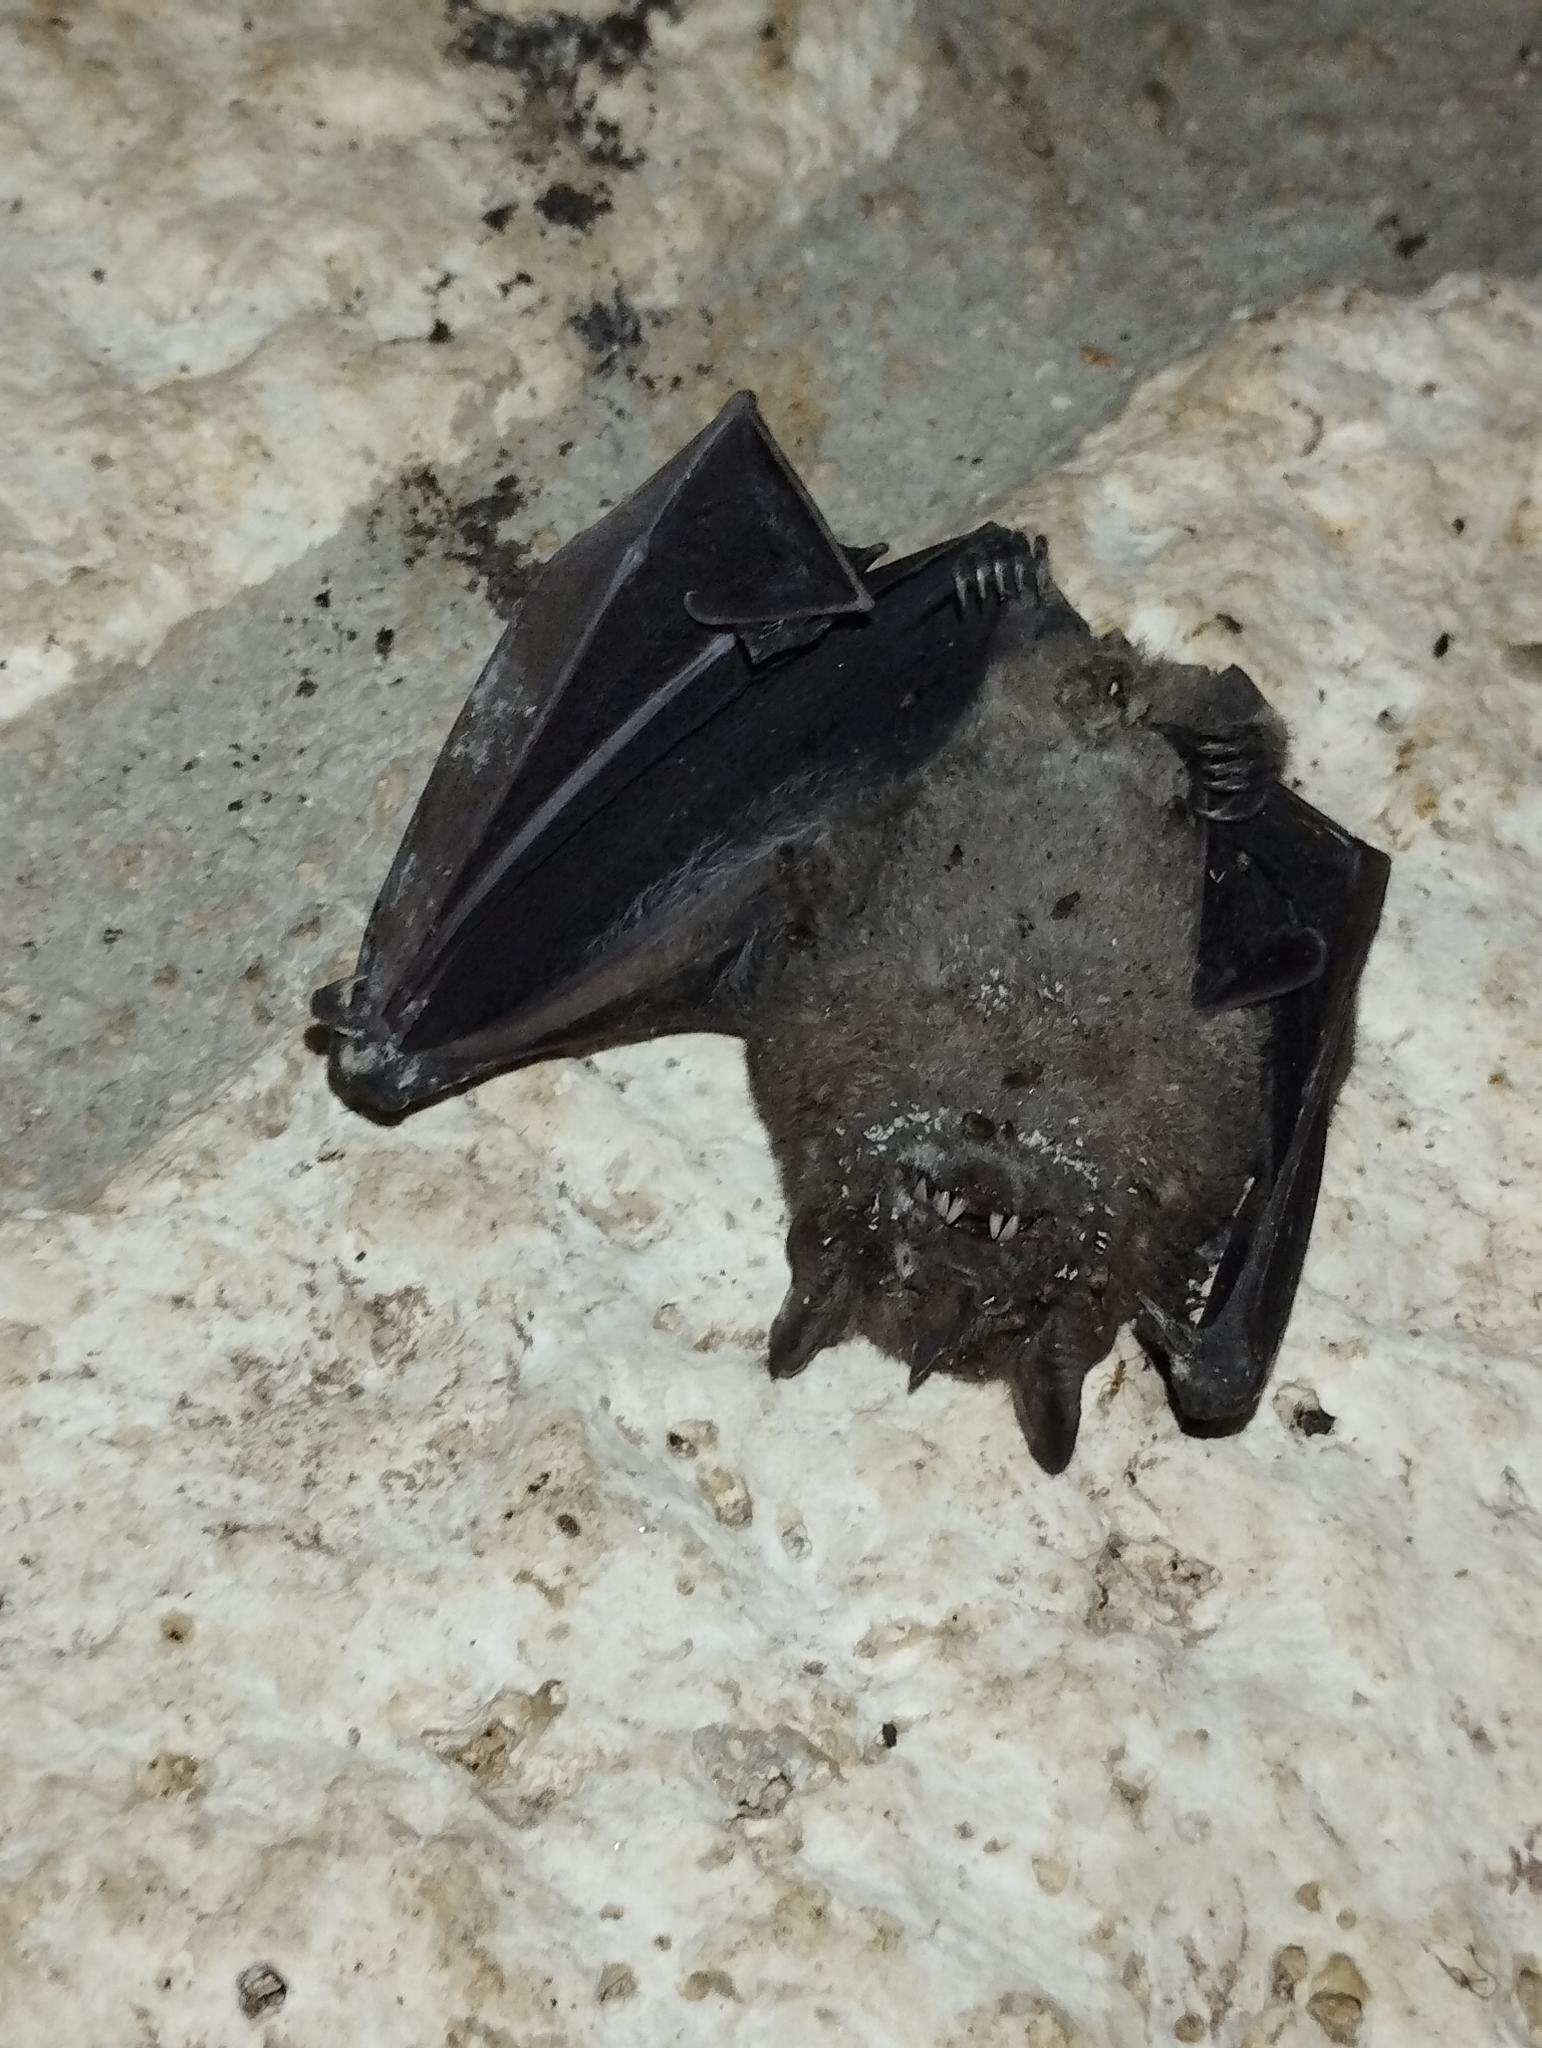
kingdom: Animalia
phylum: Chordata
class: Mammalia
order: Chiroptera
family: Phyllostomidae
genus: Artibeus
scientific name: Artibeus jamaicensis
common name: Jamaican fruit-eating bat
